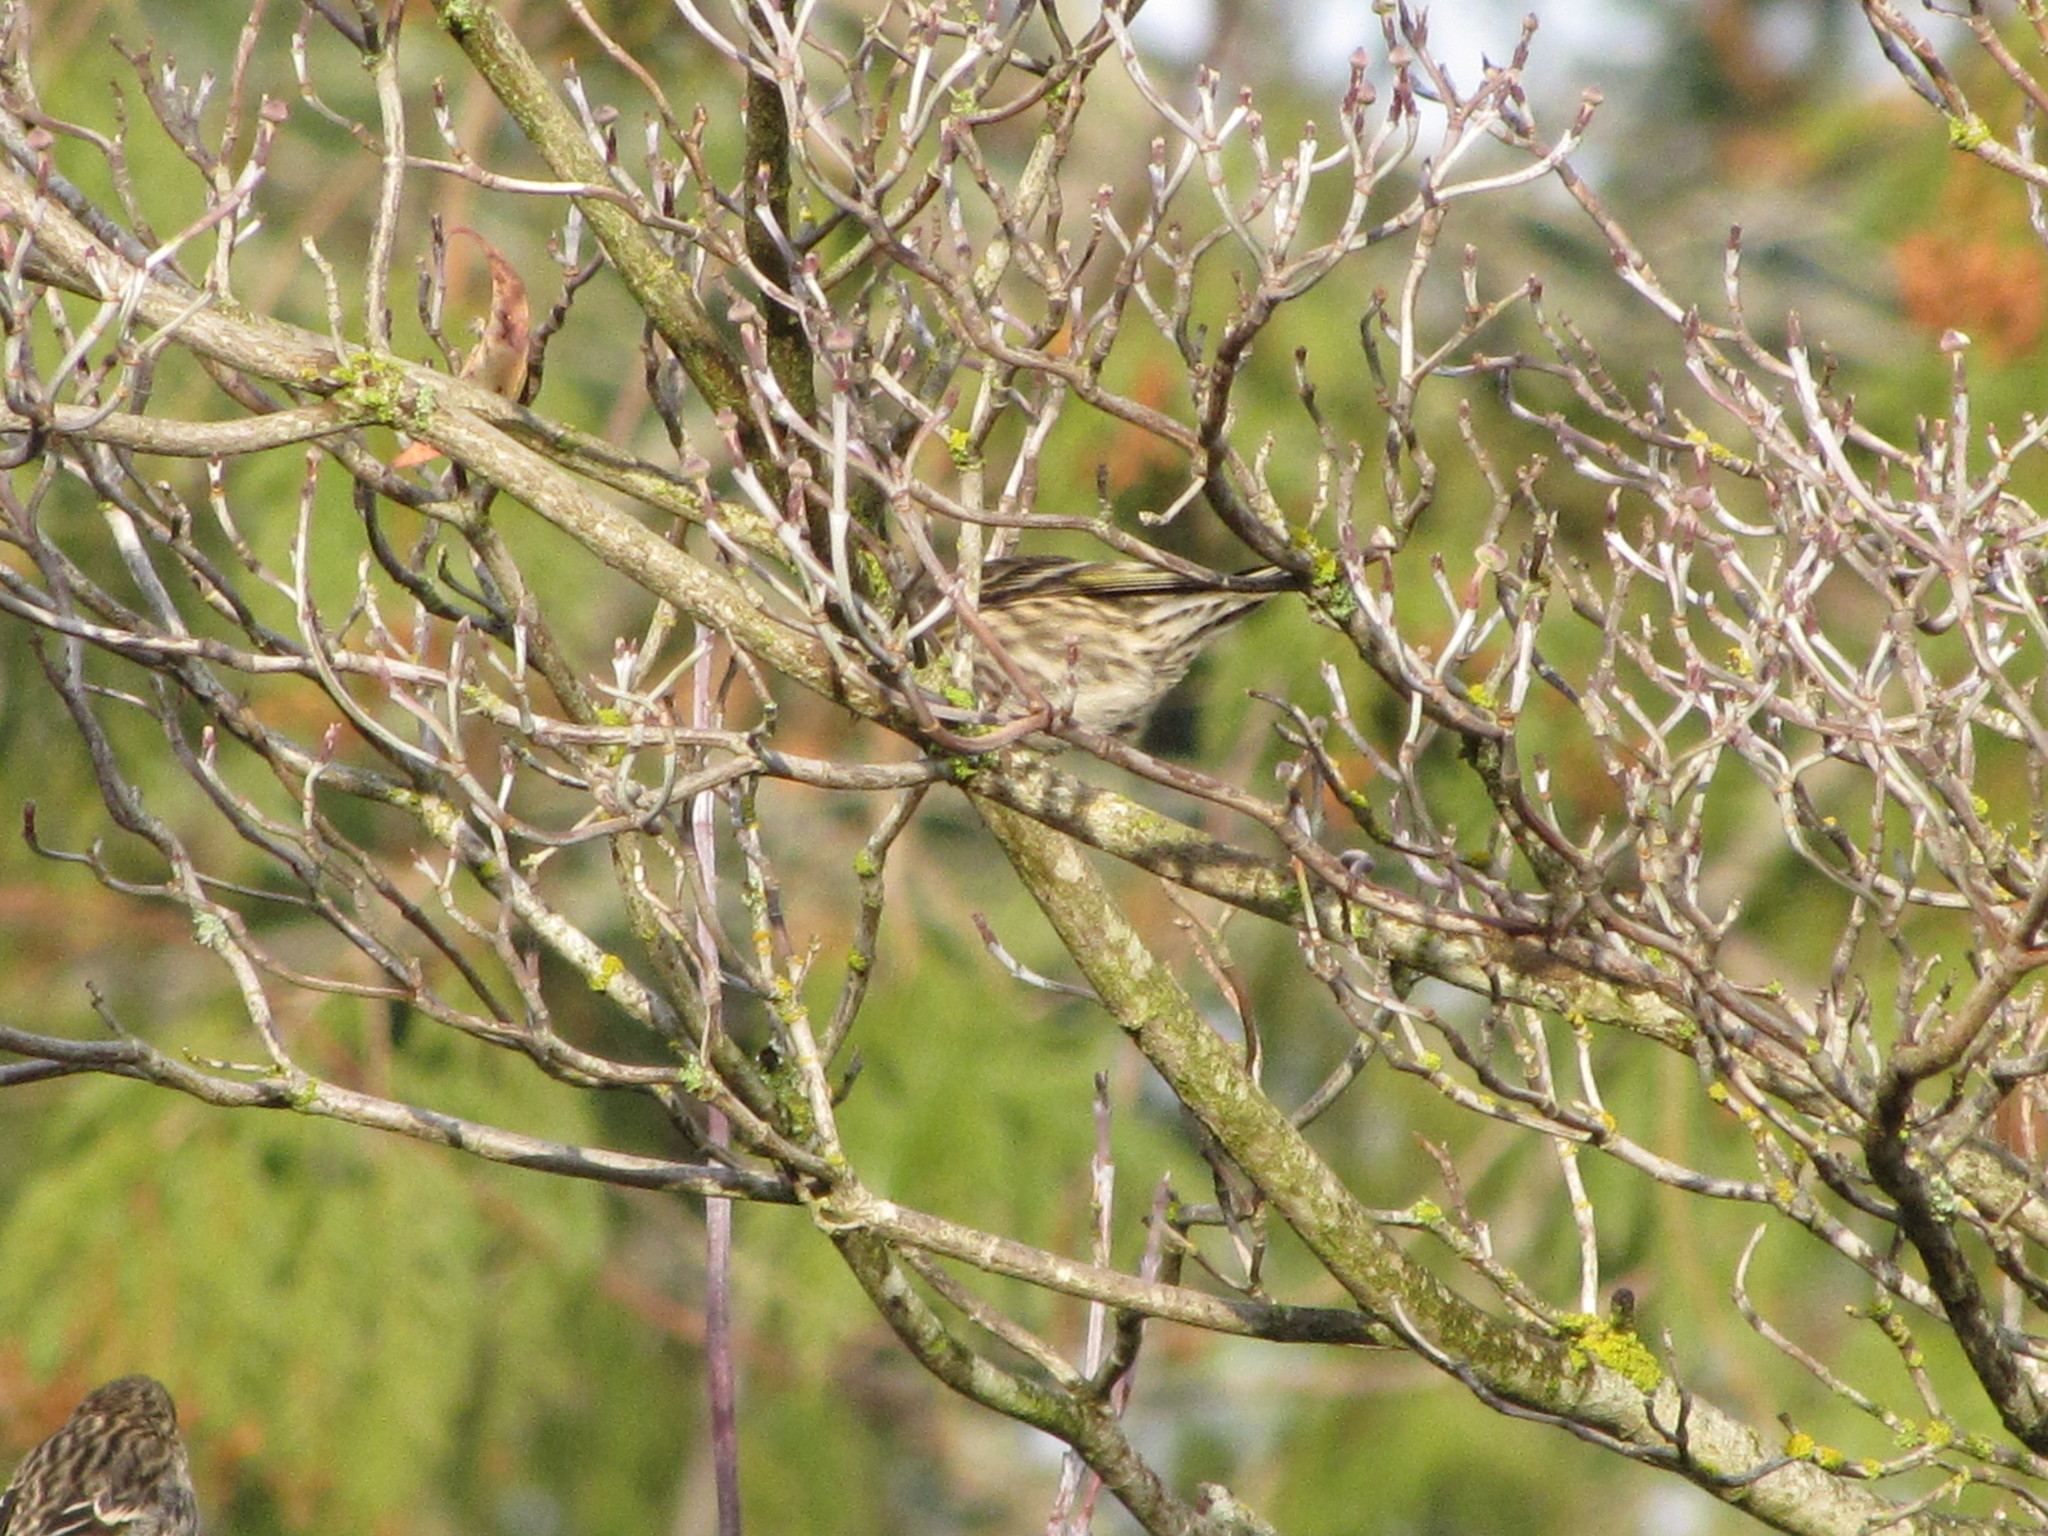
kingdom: Animalia
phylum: Chordata
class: Aves
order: Passeriformes
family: Fringillidae
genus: Spinus
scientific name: Spinus pinus
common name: Pine siskin
